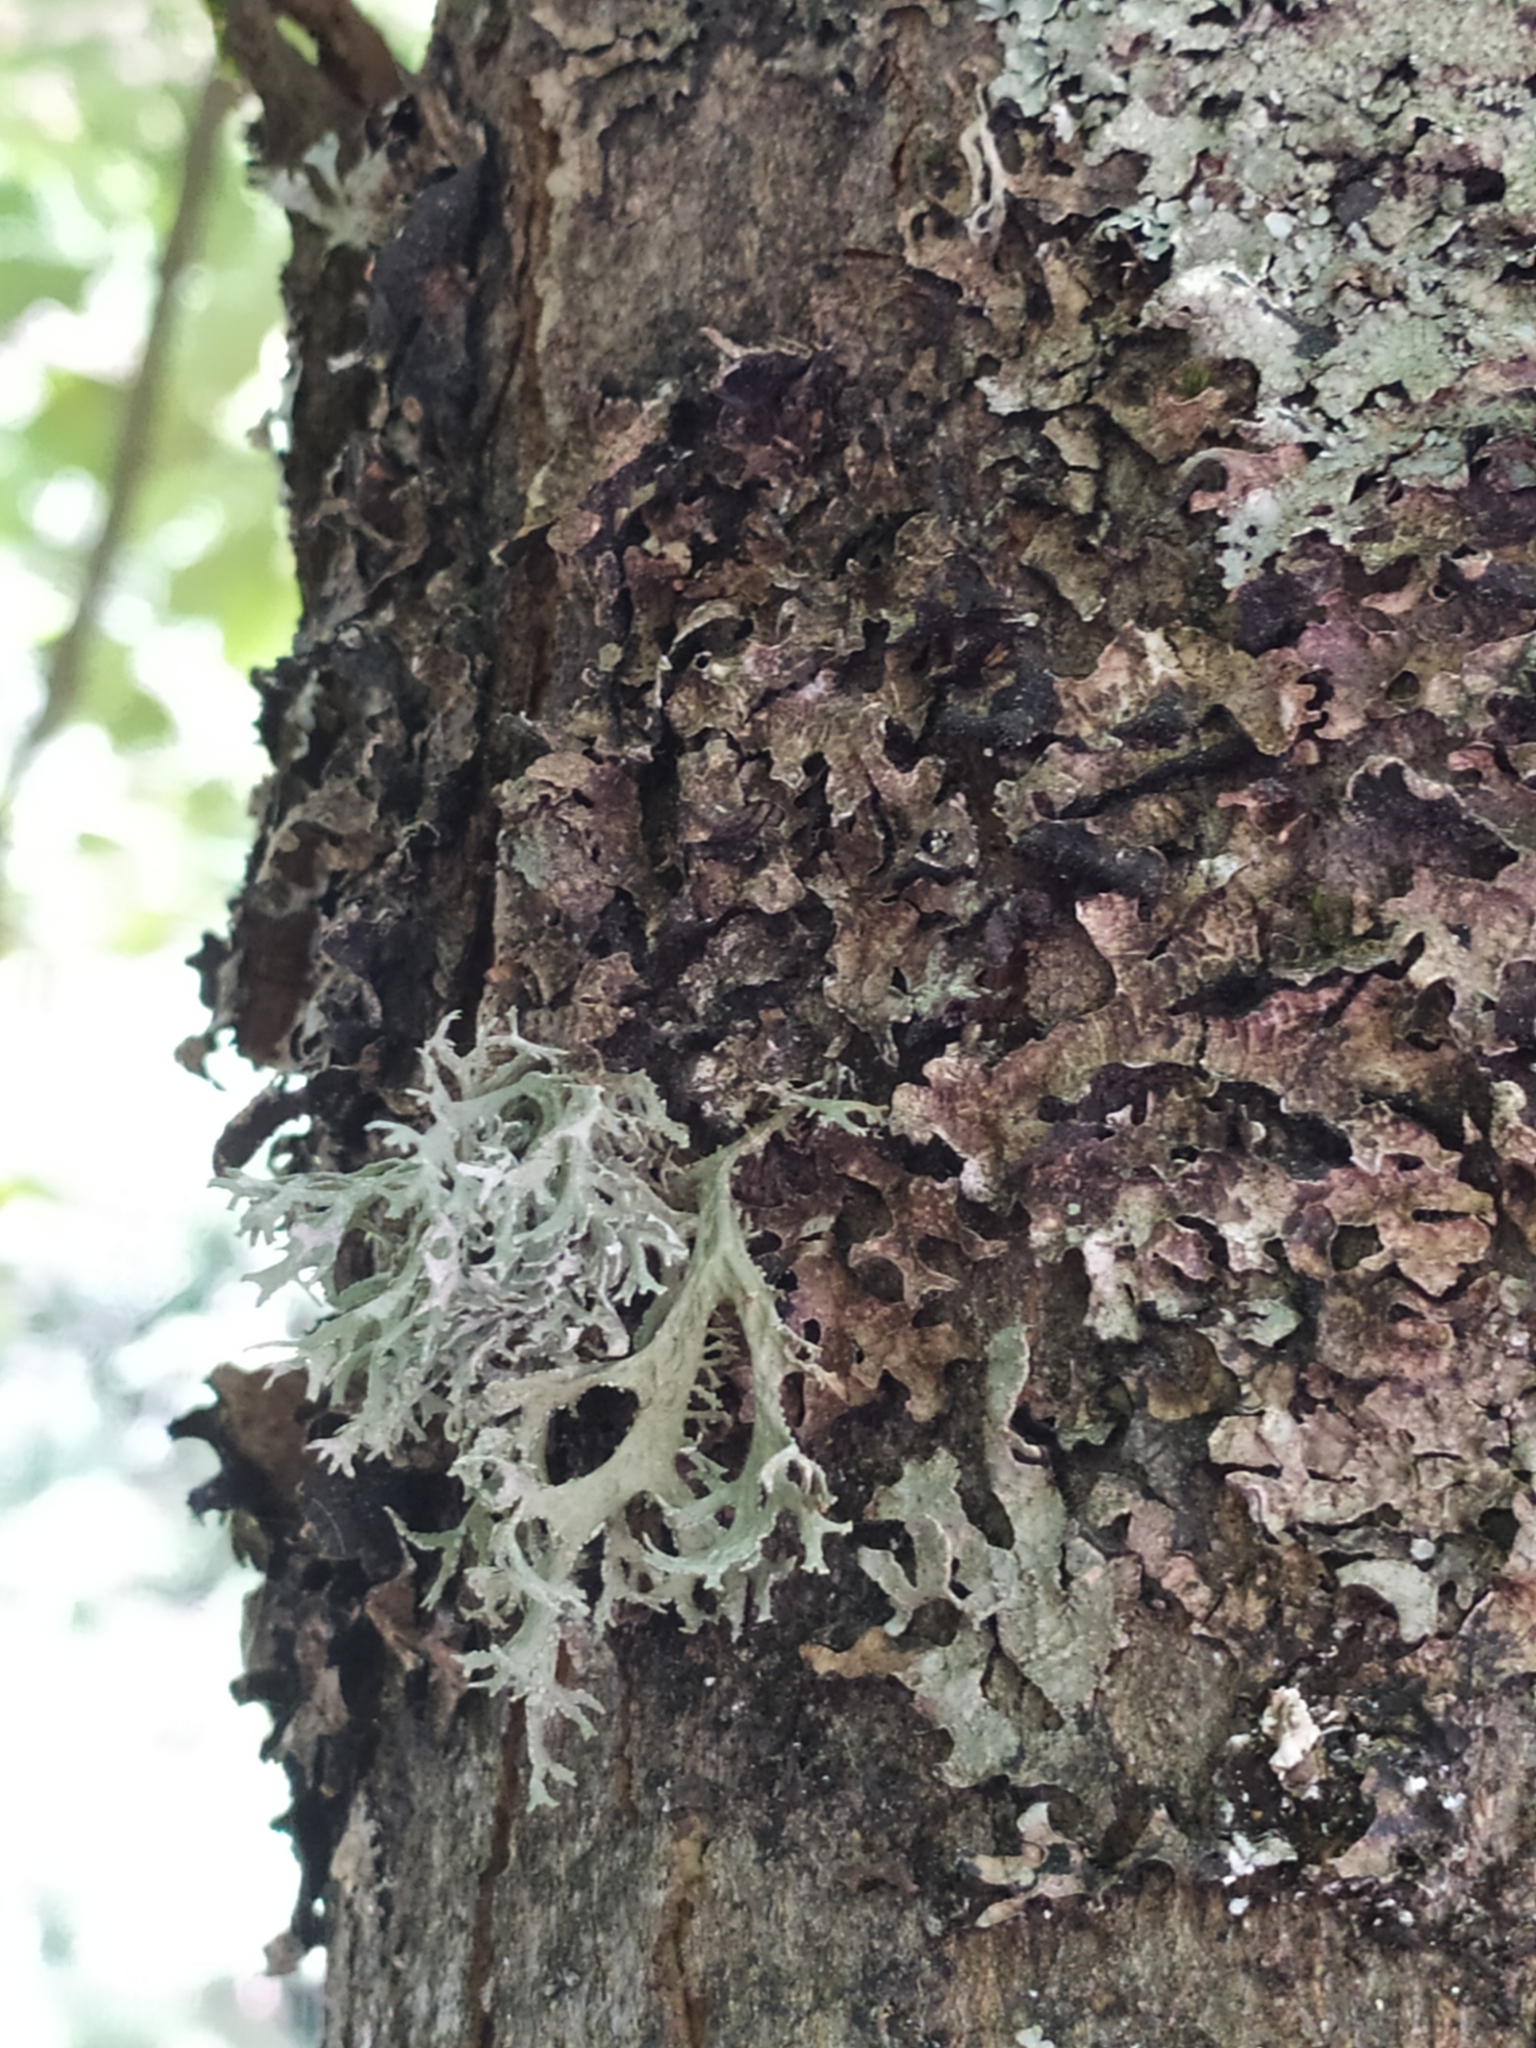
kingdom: Fungi
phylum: Ascomycota
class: Lecanoromycetes
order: Lecanorales
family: Parmeliaceae
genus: Evernia
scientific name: Evernia prunastri
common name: Oak moss
